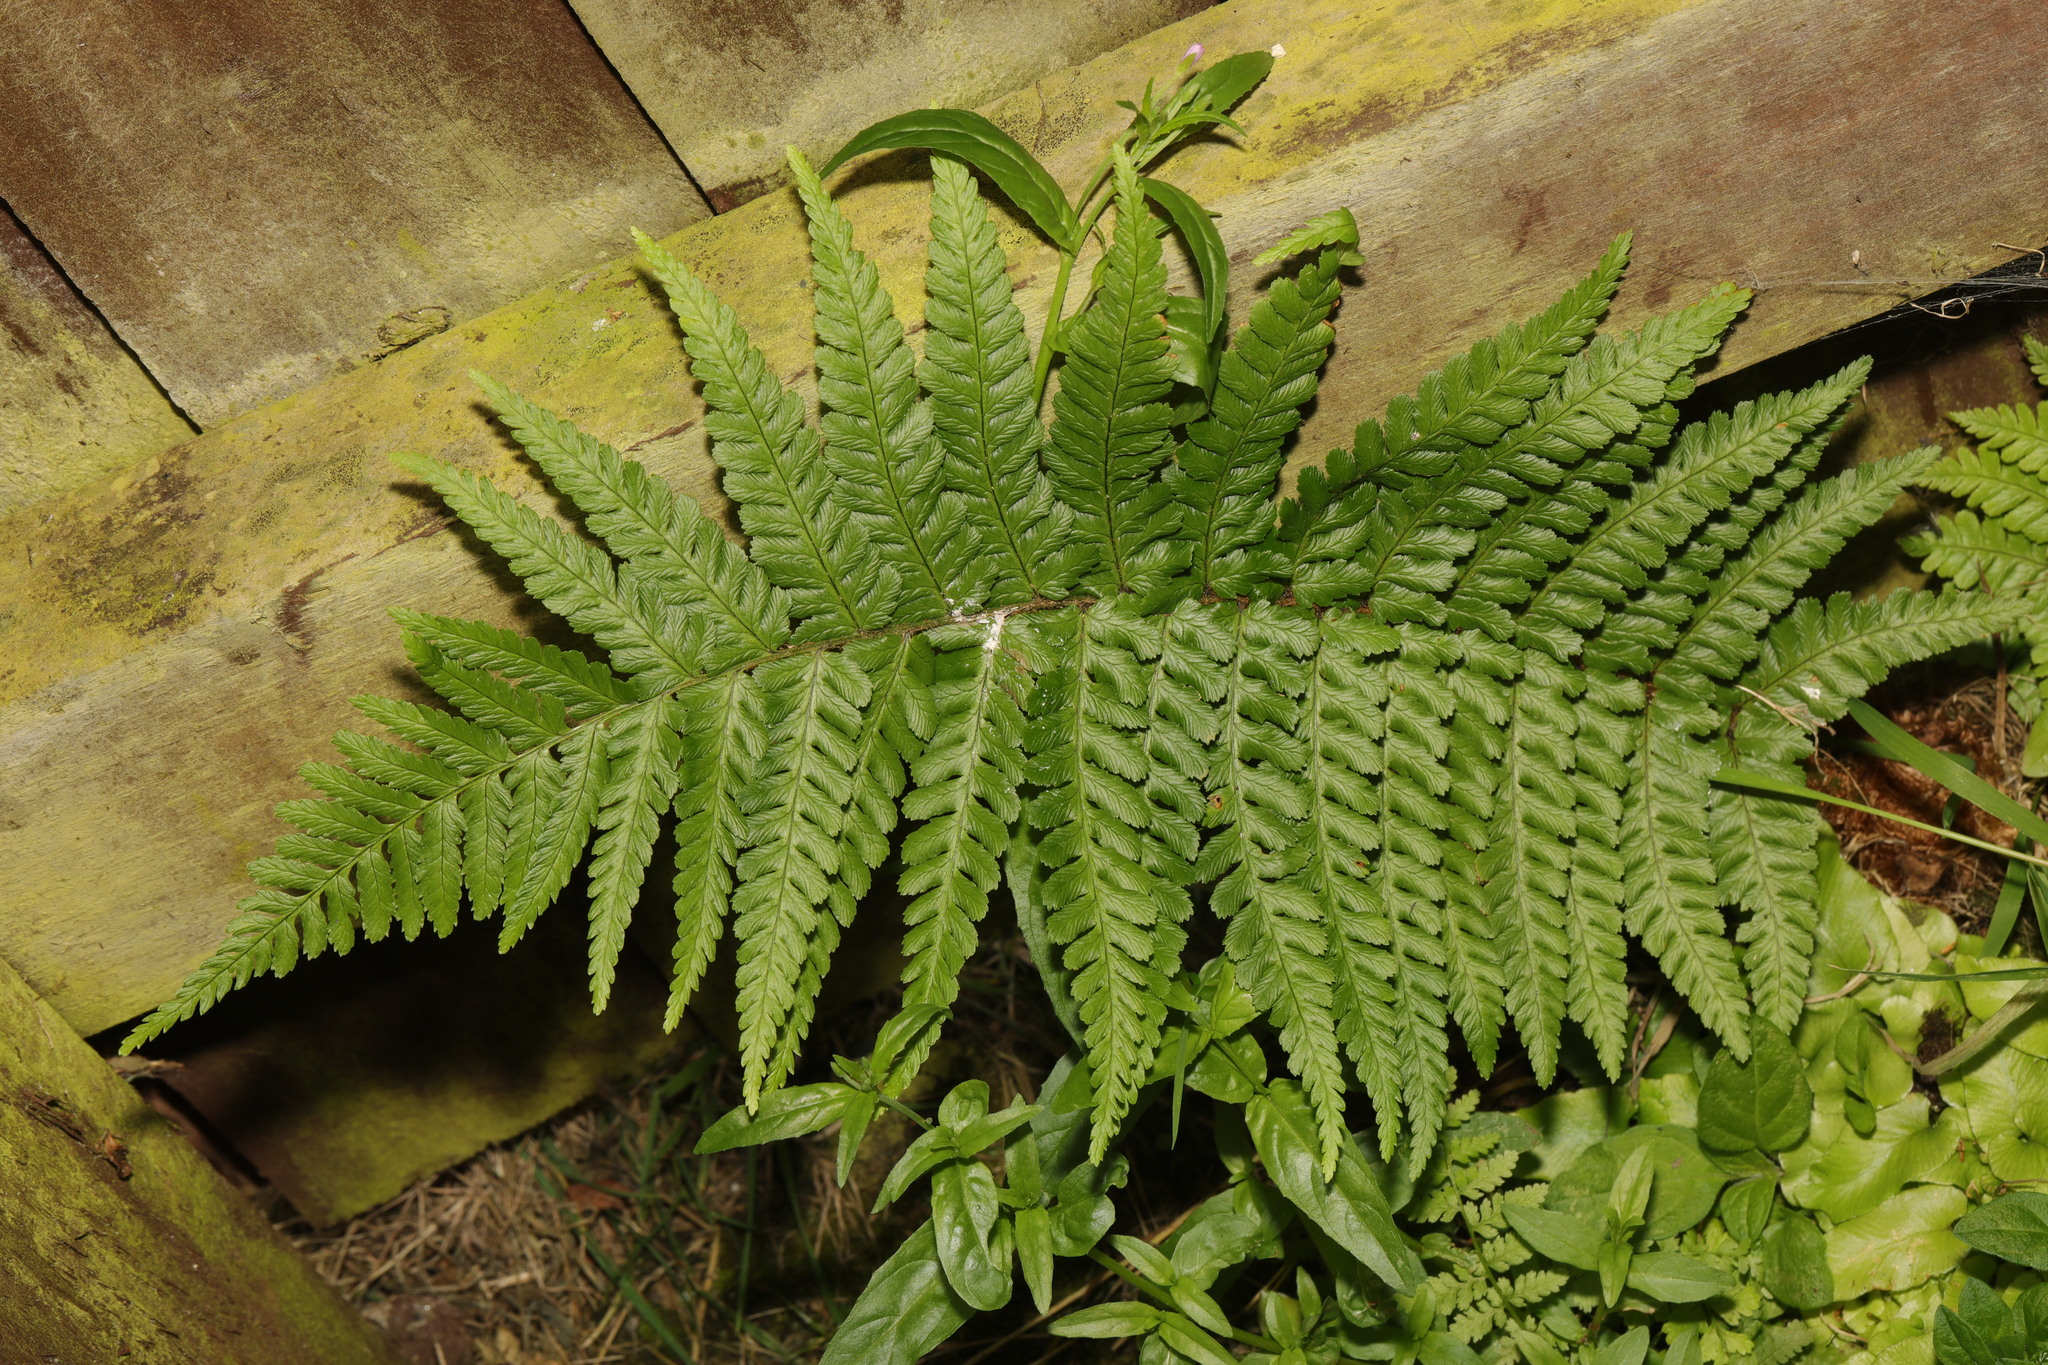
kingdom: Plantae
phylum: Tracheophyta
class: Polypodiopsida
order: Polypodiales
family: Dryopteridaceae
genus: Dryopteris
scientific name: Dryopteris filix-mas
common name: Male fern
